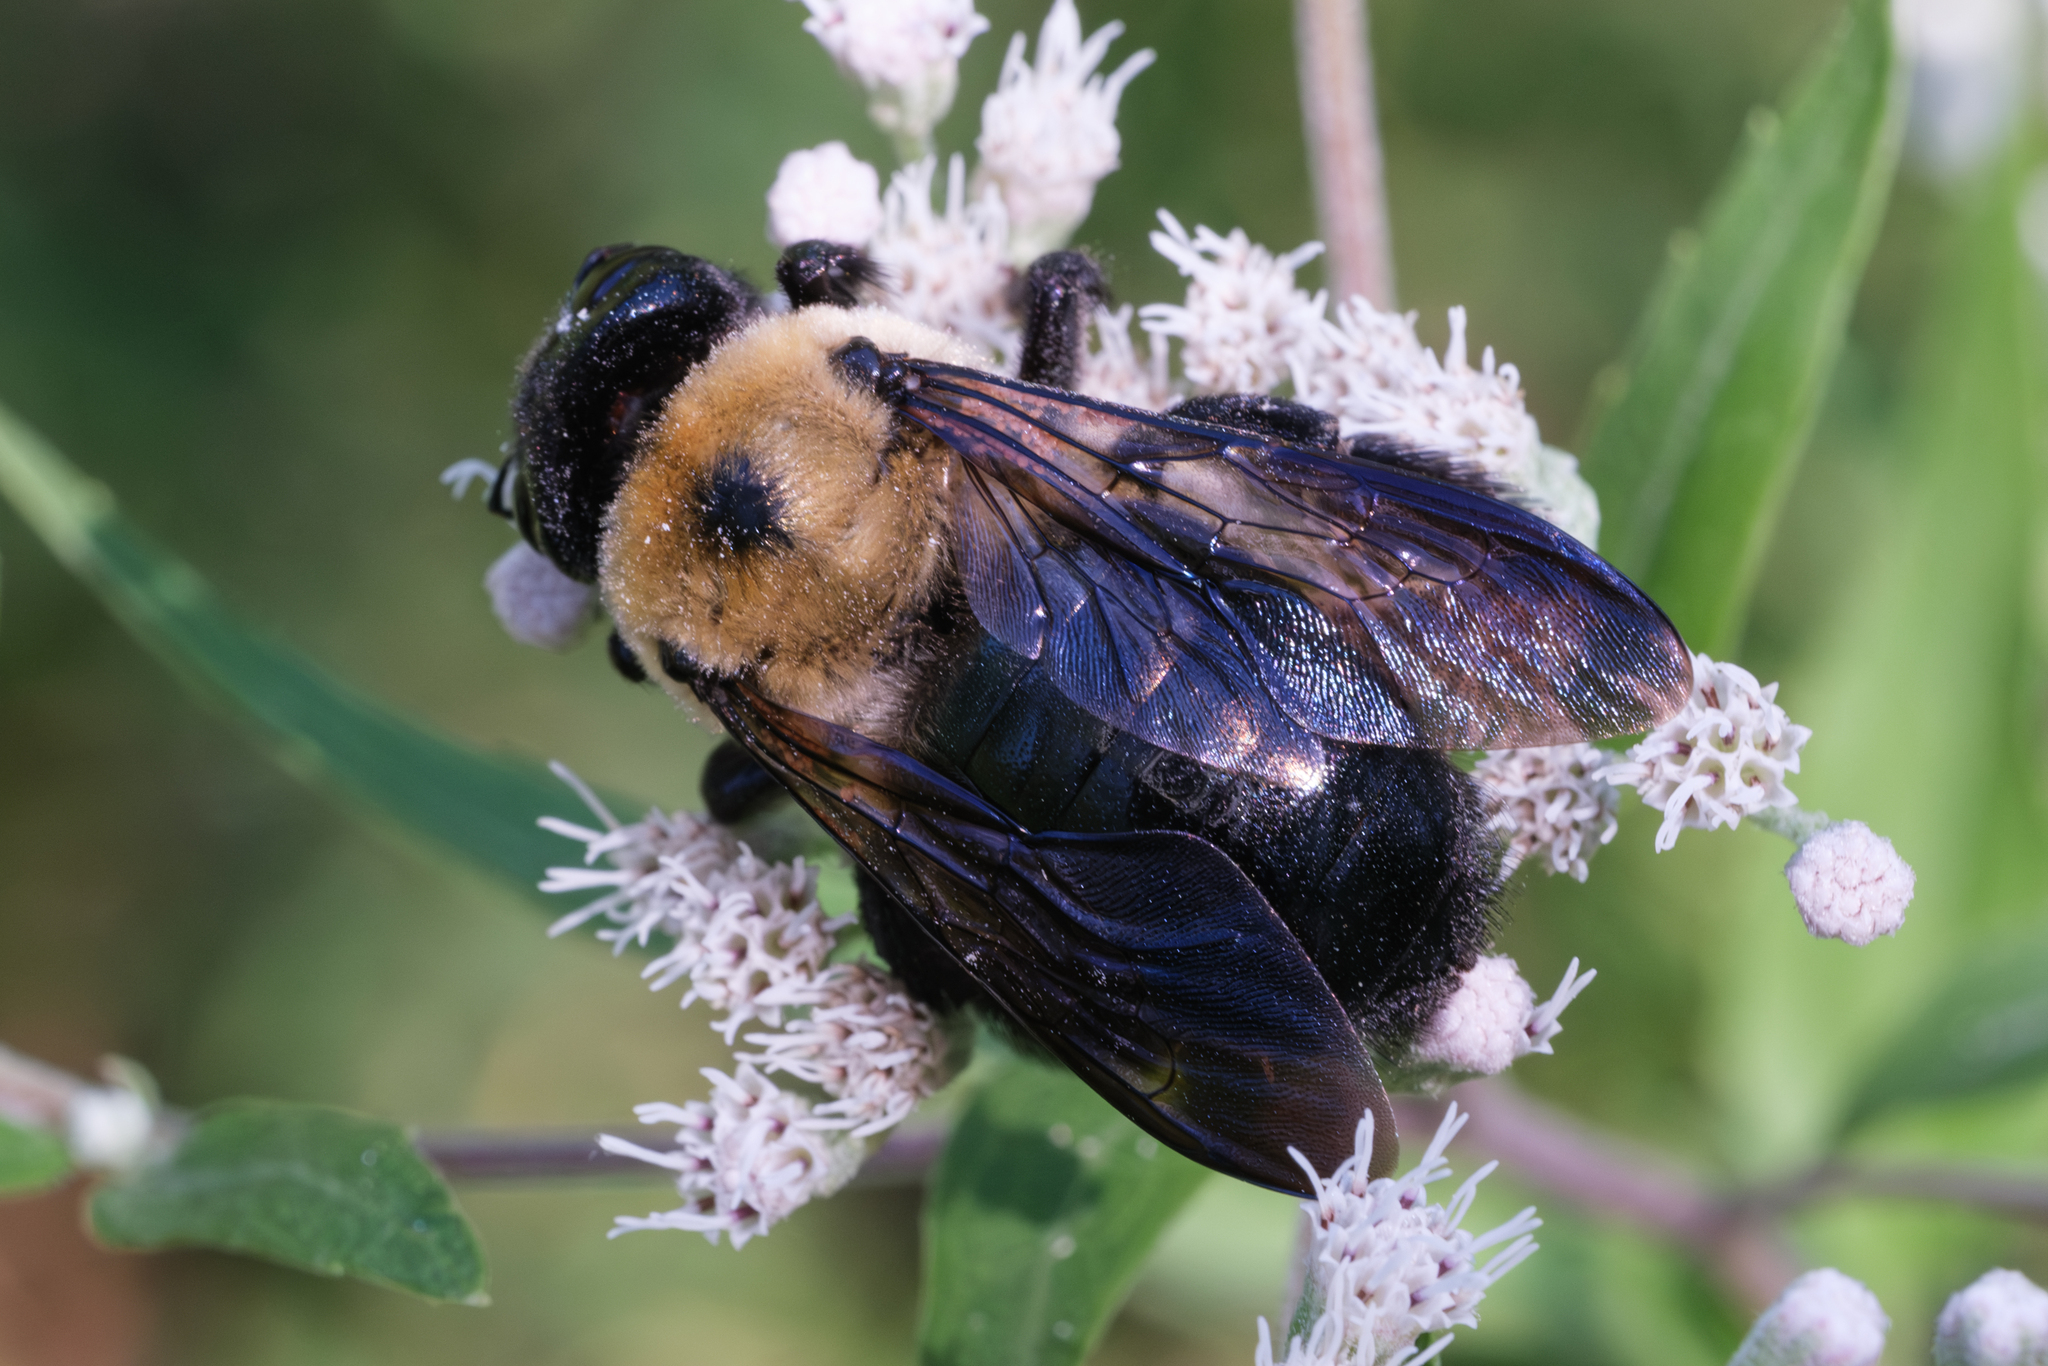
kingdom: Animalia
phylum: Arthropoda
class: Insecta
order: Hymenoptera
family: Apidae
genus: Xylocopa
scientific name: Xylocopa virginica
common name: Carpenter bee
